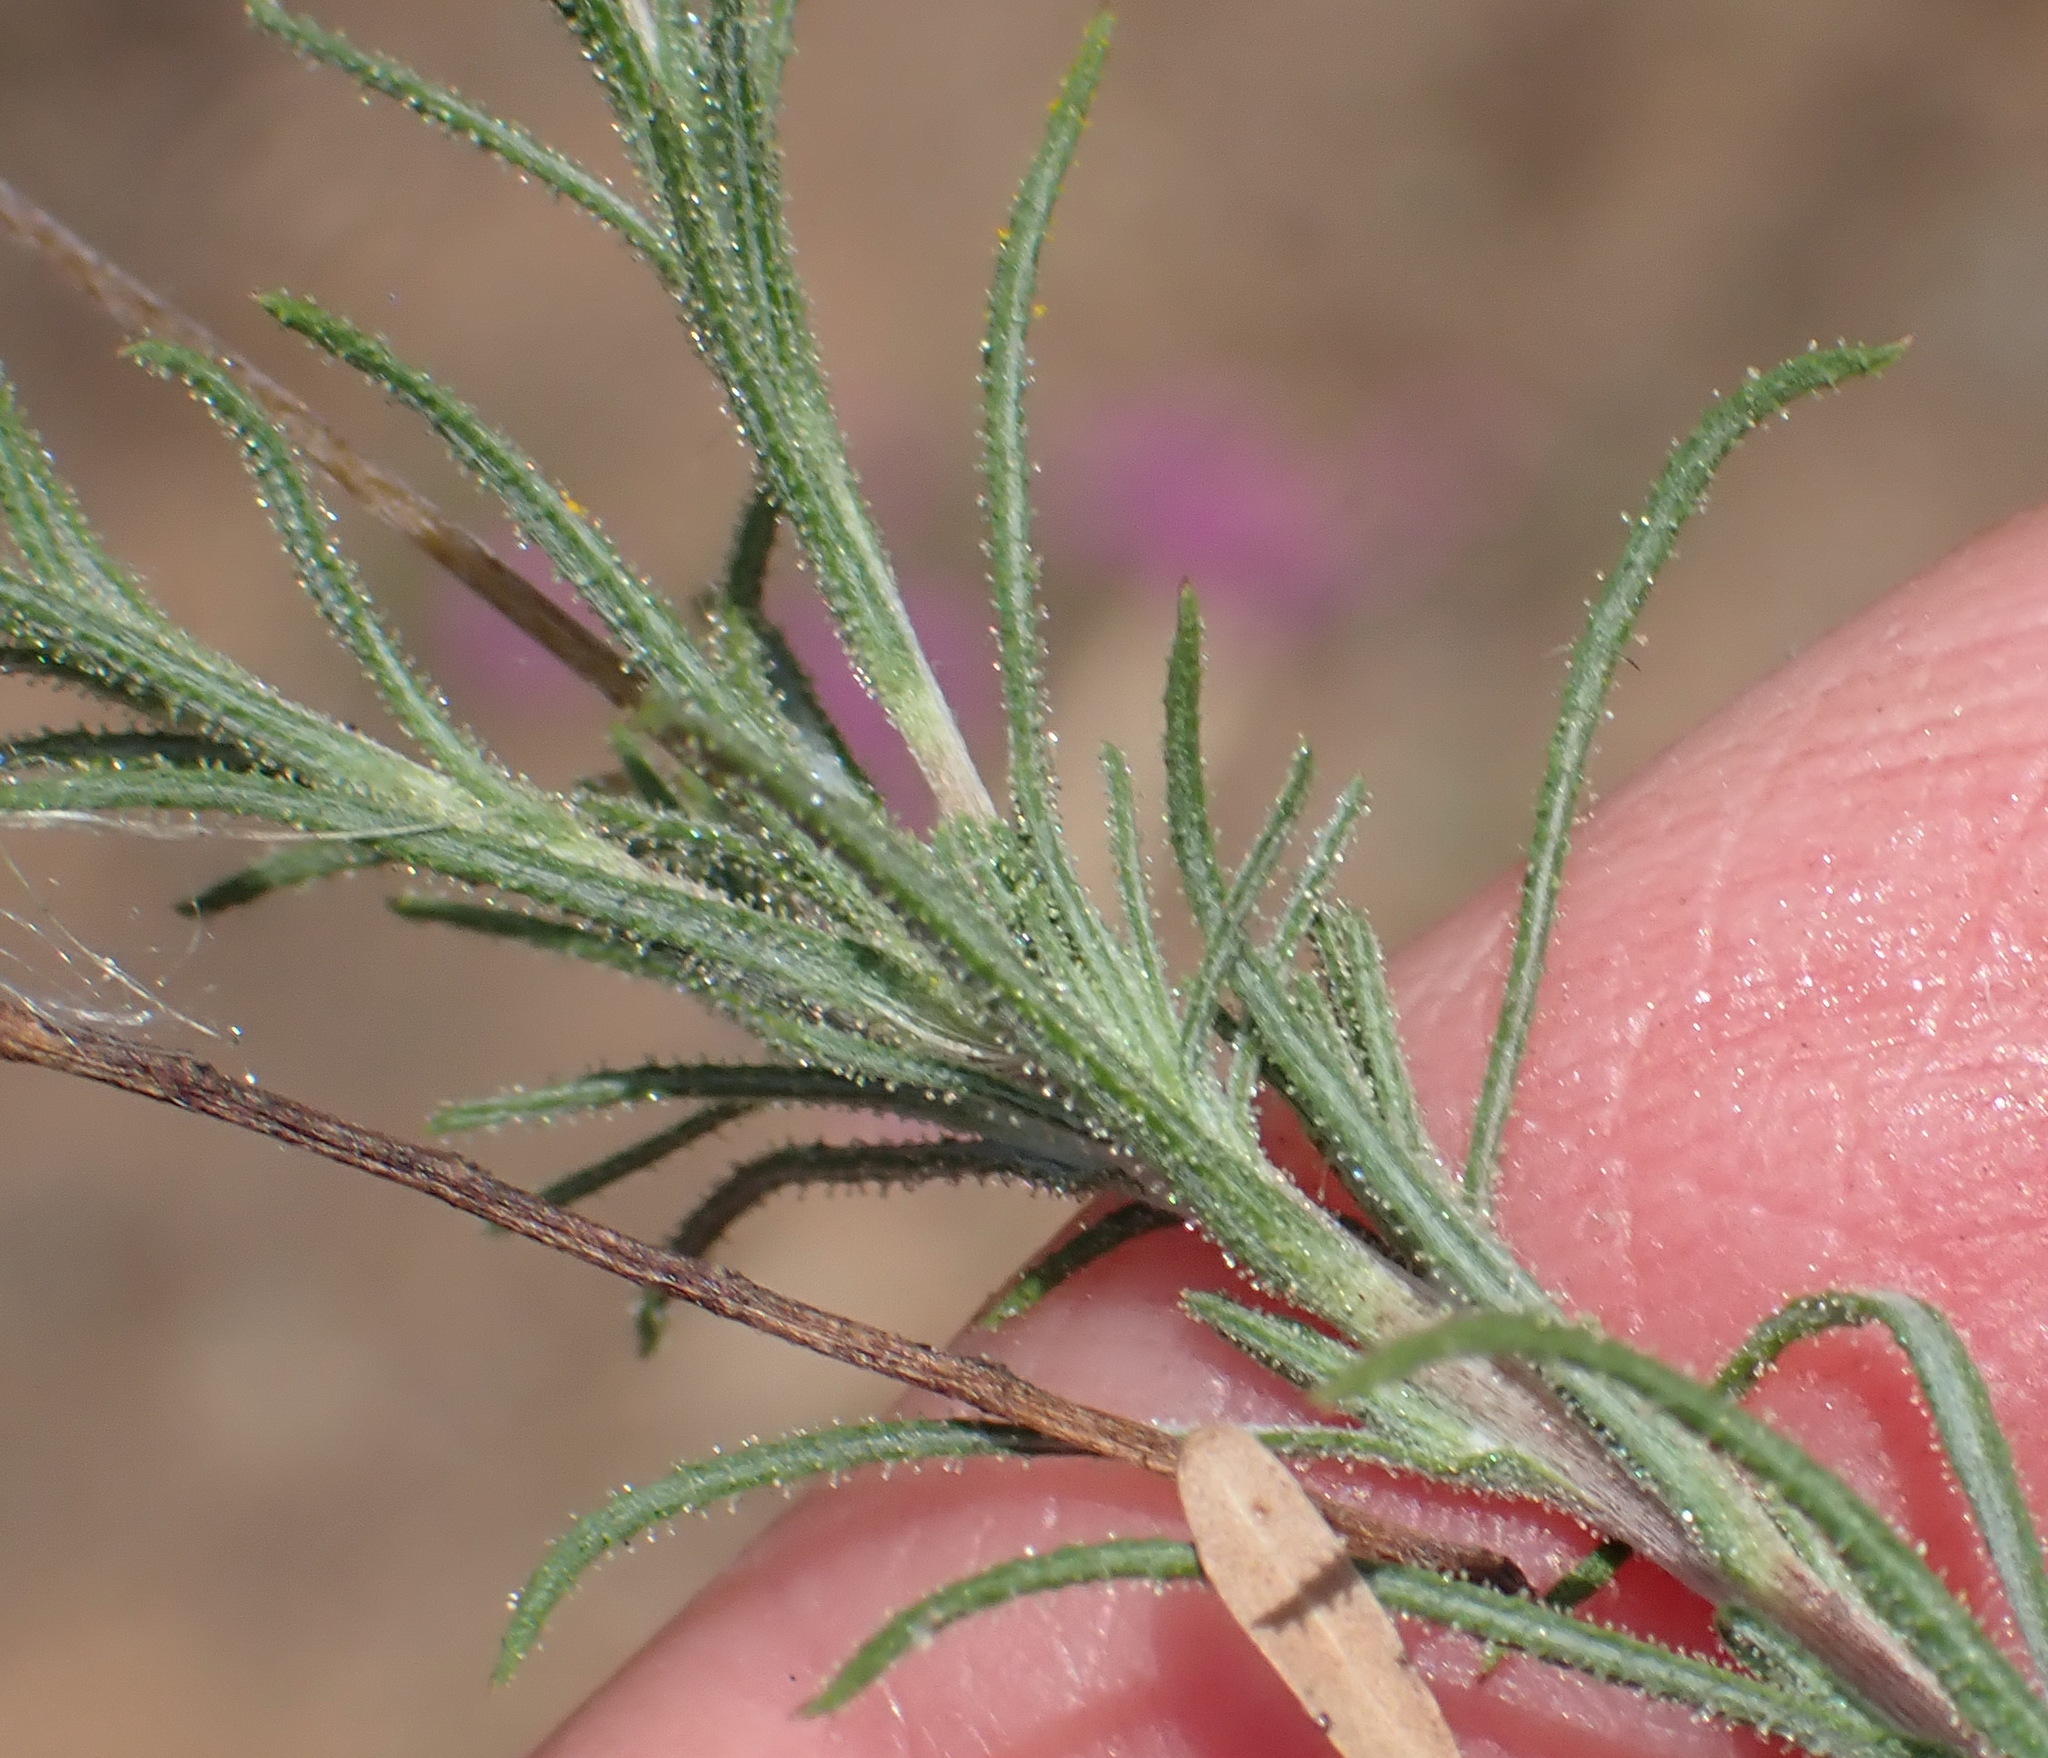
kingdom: Plantae
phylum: Tracheophyta
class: Magnoliopsida
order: Asterales
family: Asteraceae
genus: Leysera
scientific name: Leysera gnaphalodes
